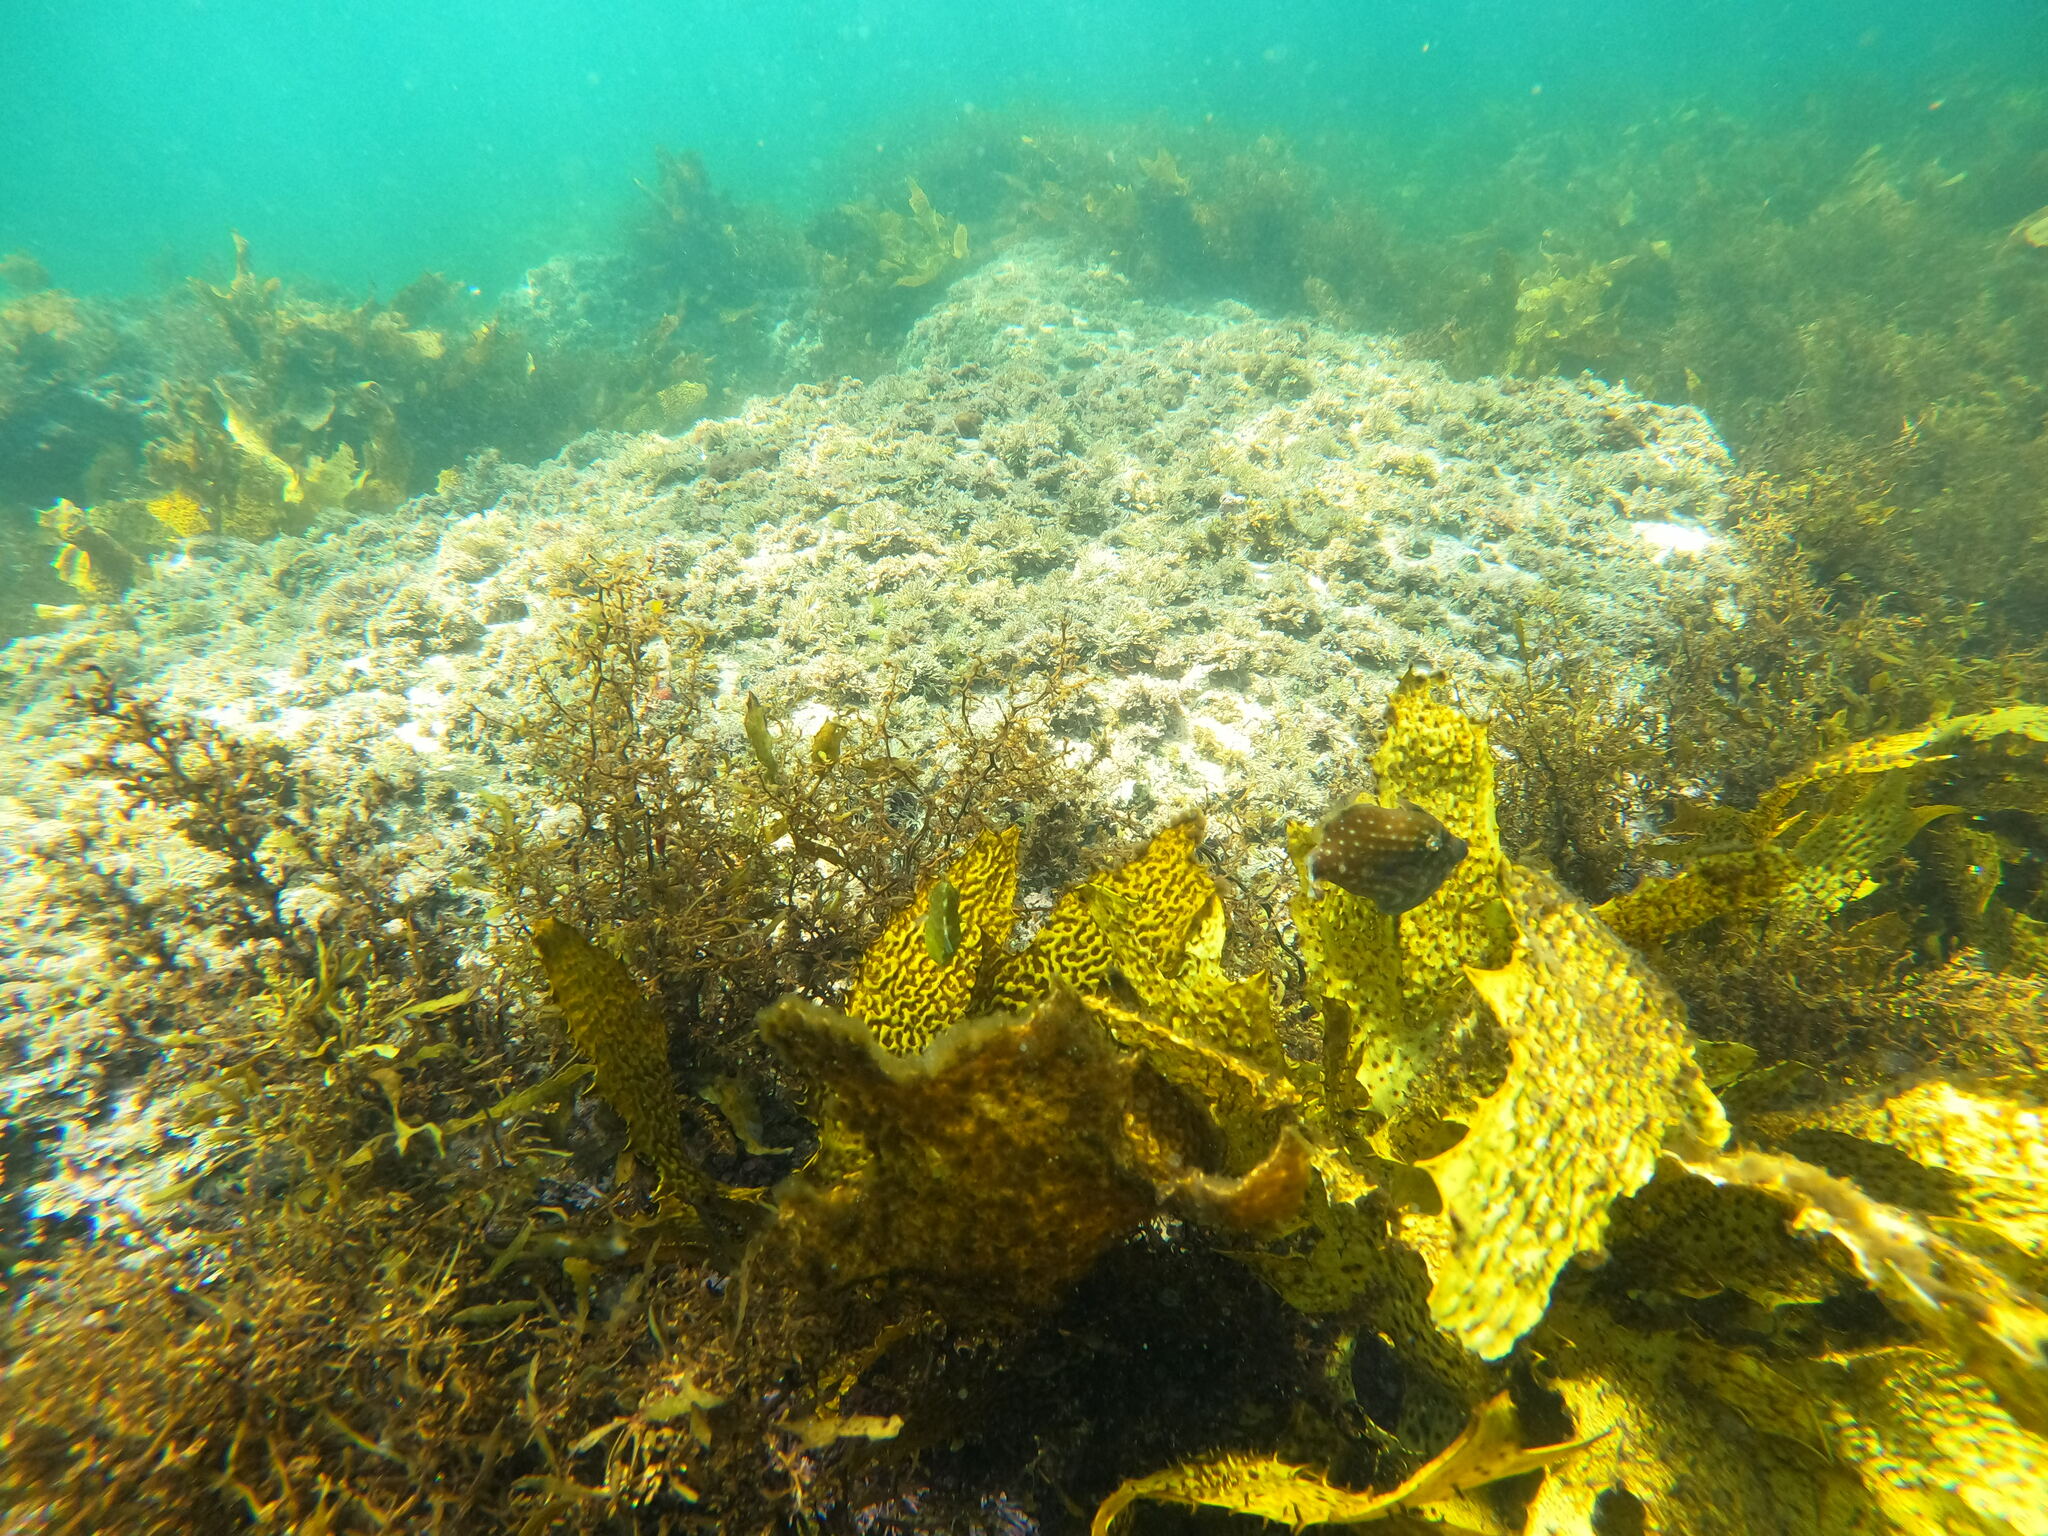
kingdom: Animalia
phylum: Chordata
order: Tetraodontiformes
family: Monacanthidae
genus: Brachaluteres
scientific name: Brachaluteres jacksonianus
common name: Pigmy leatherjacket
